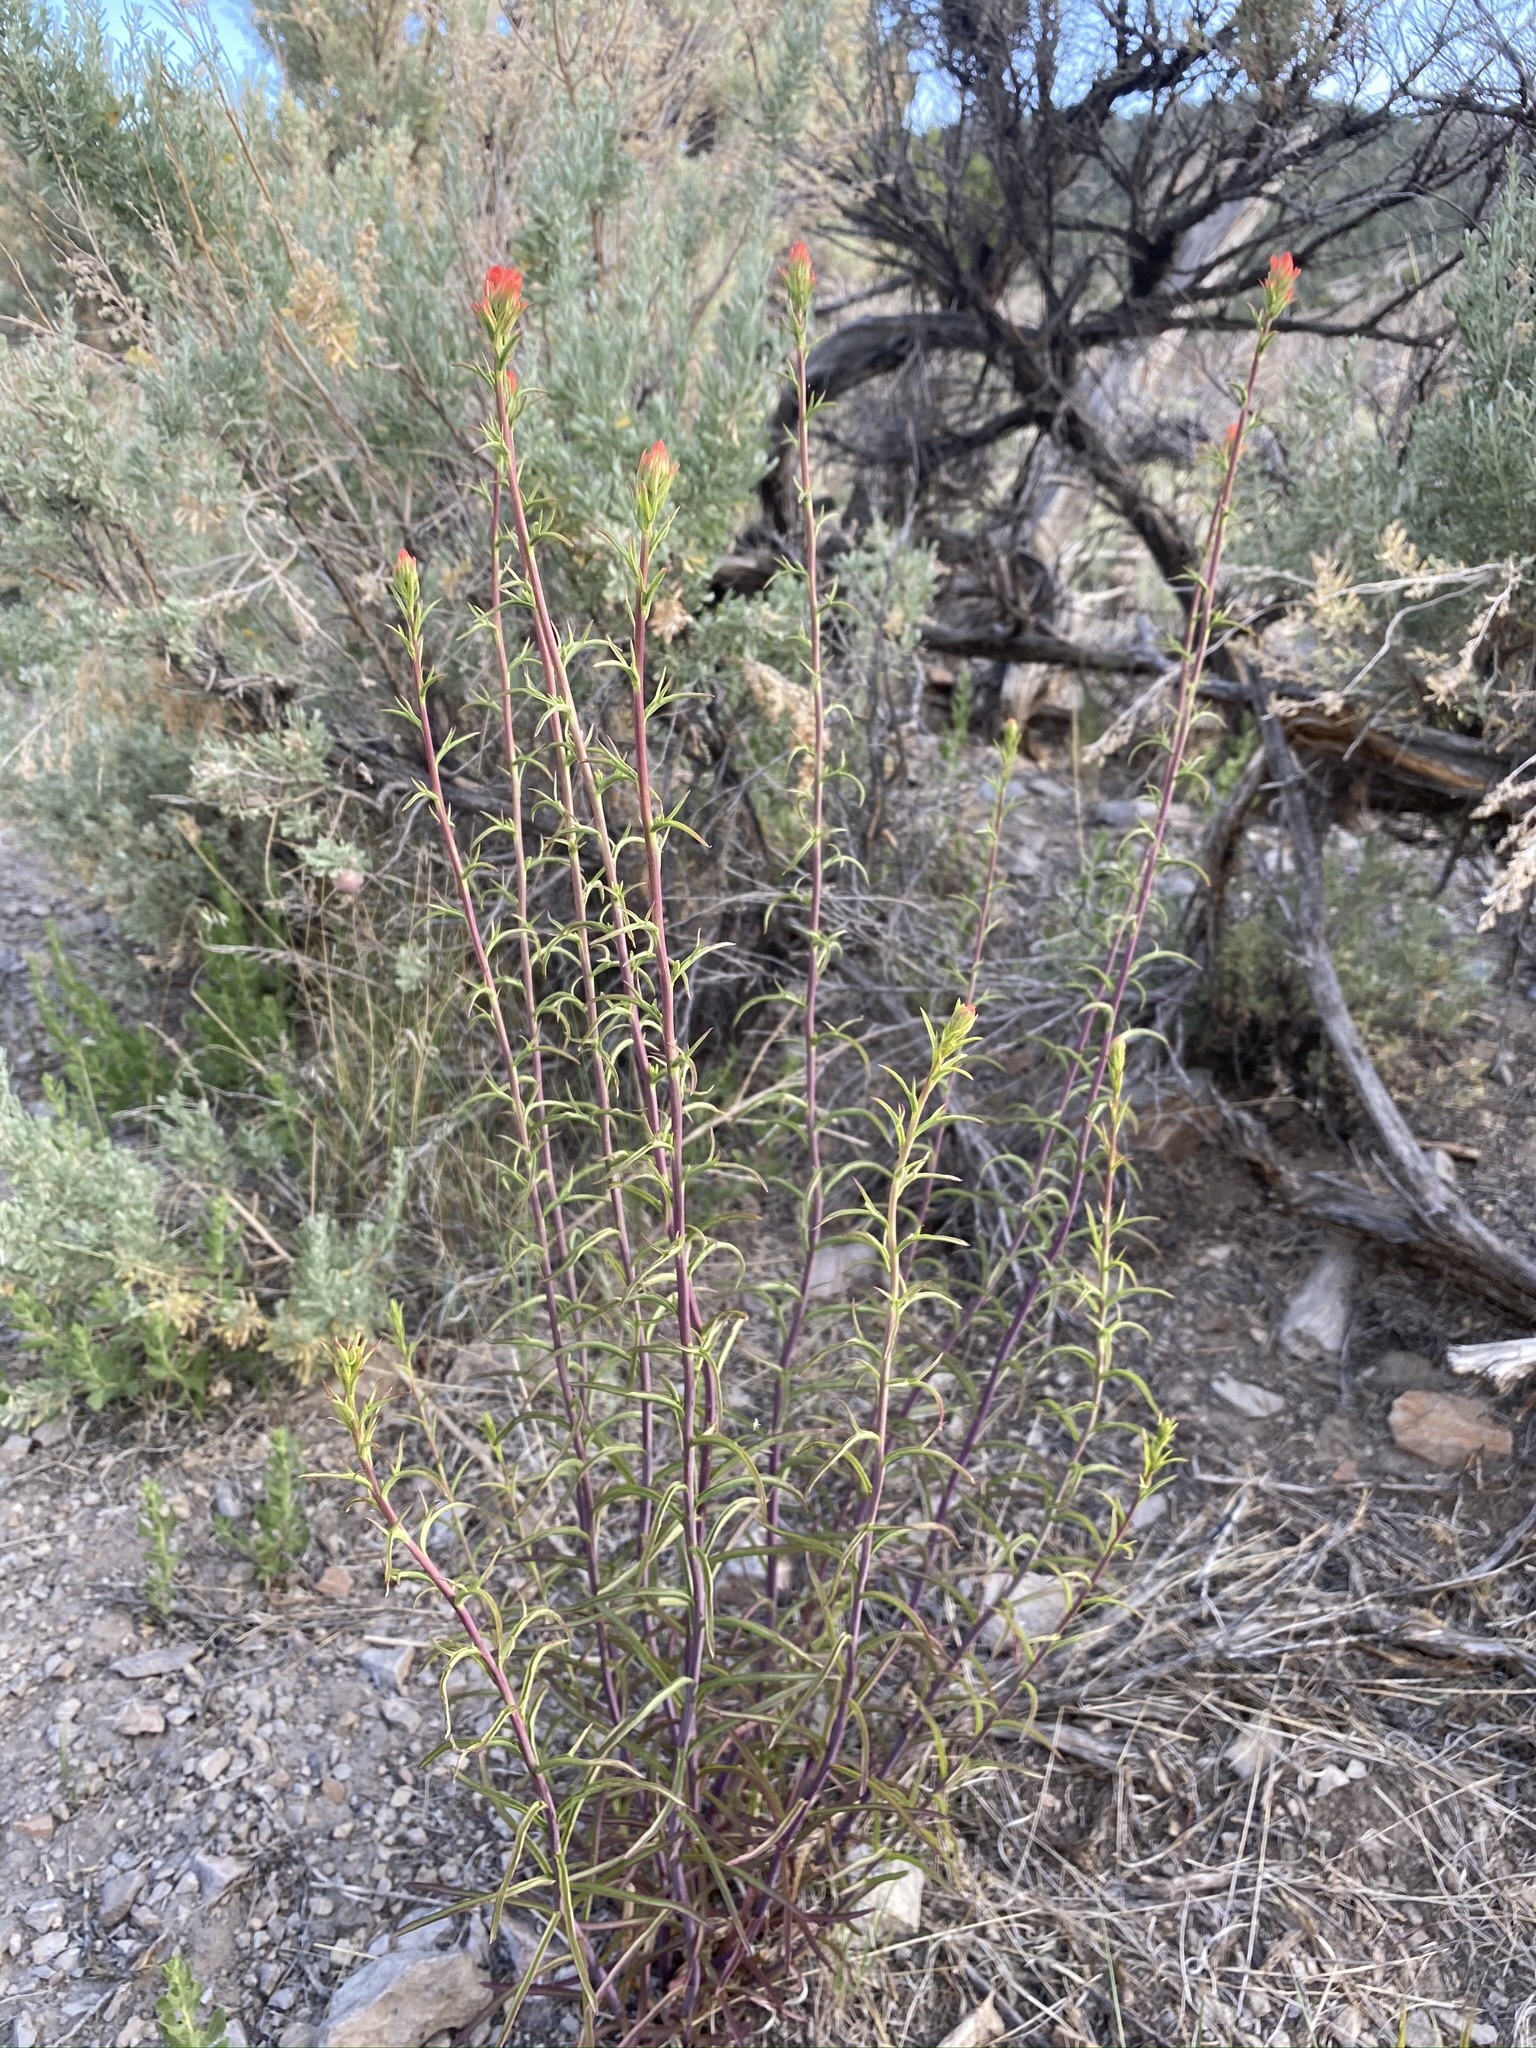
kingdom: Plantae
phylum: Tracheophyta
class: Magnoliopsida
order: Lamiales
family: Orobanchaceae
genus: Castilleja
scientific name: Castilleja linariifolia
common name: Wyoming paintbrush
